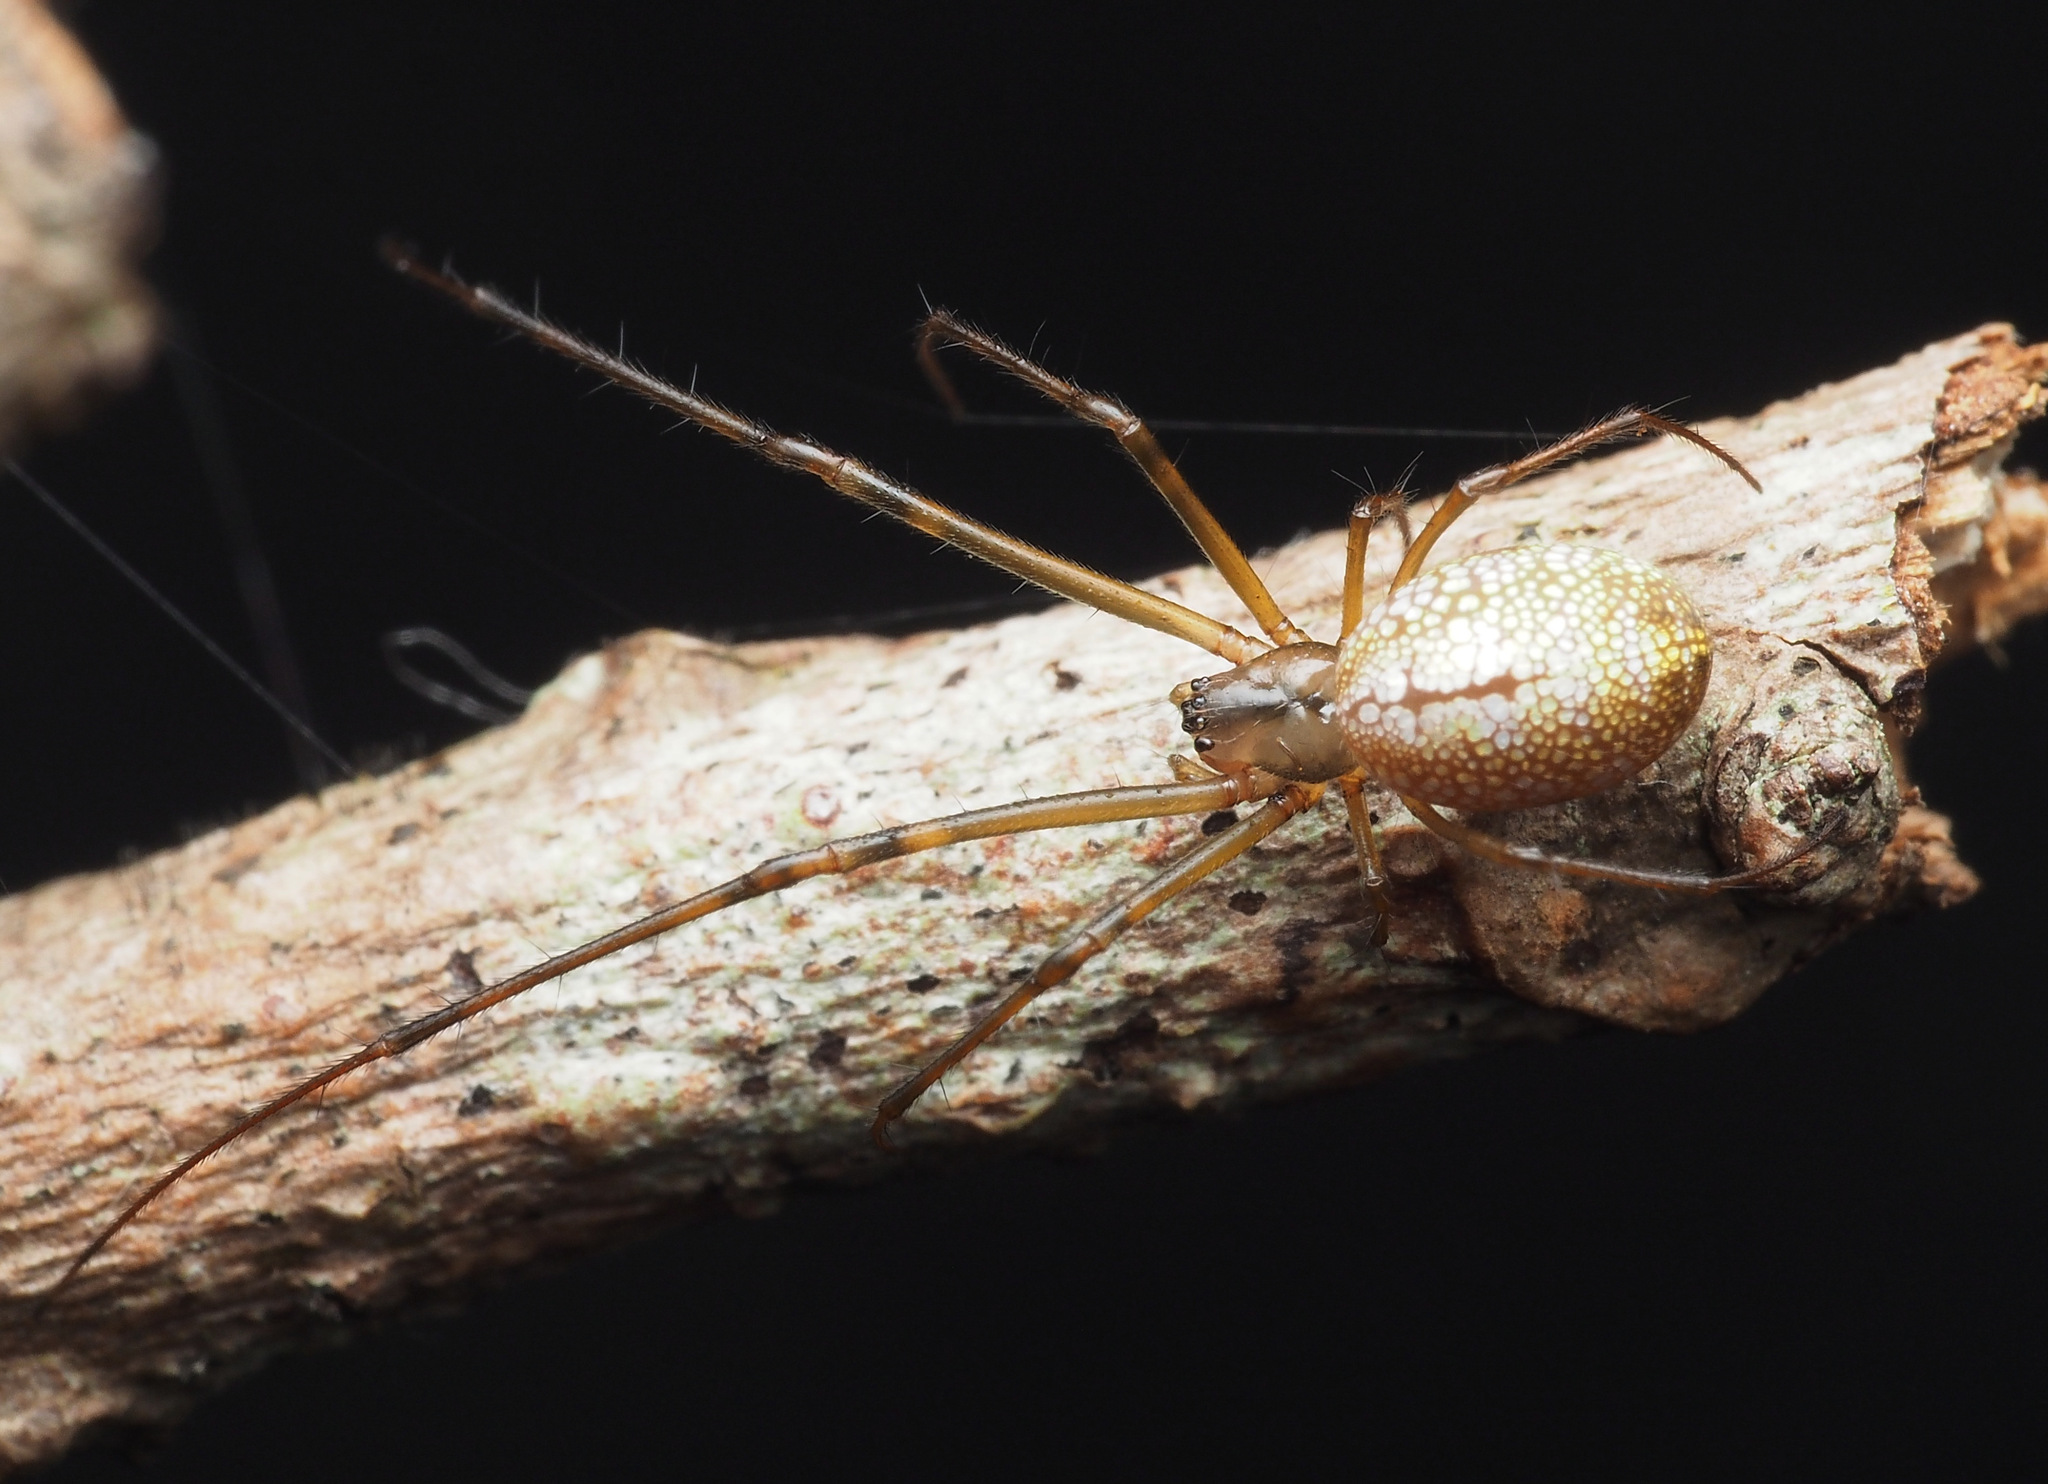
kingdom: Animalia
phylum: Arthropoda
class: Arachnida
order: Araneae
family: Tetragnathidae
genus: Tylorida
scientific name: Tylorida
